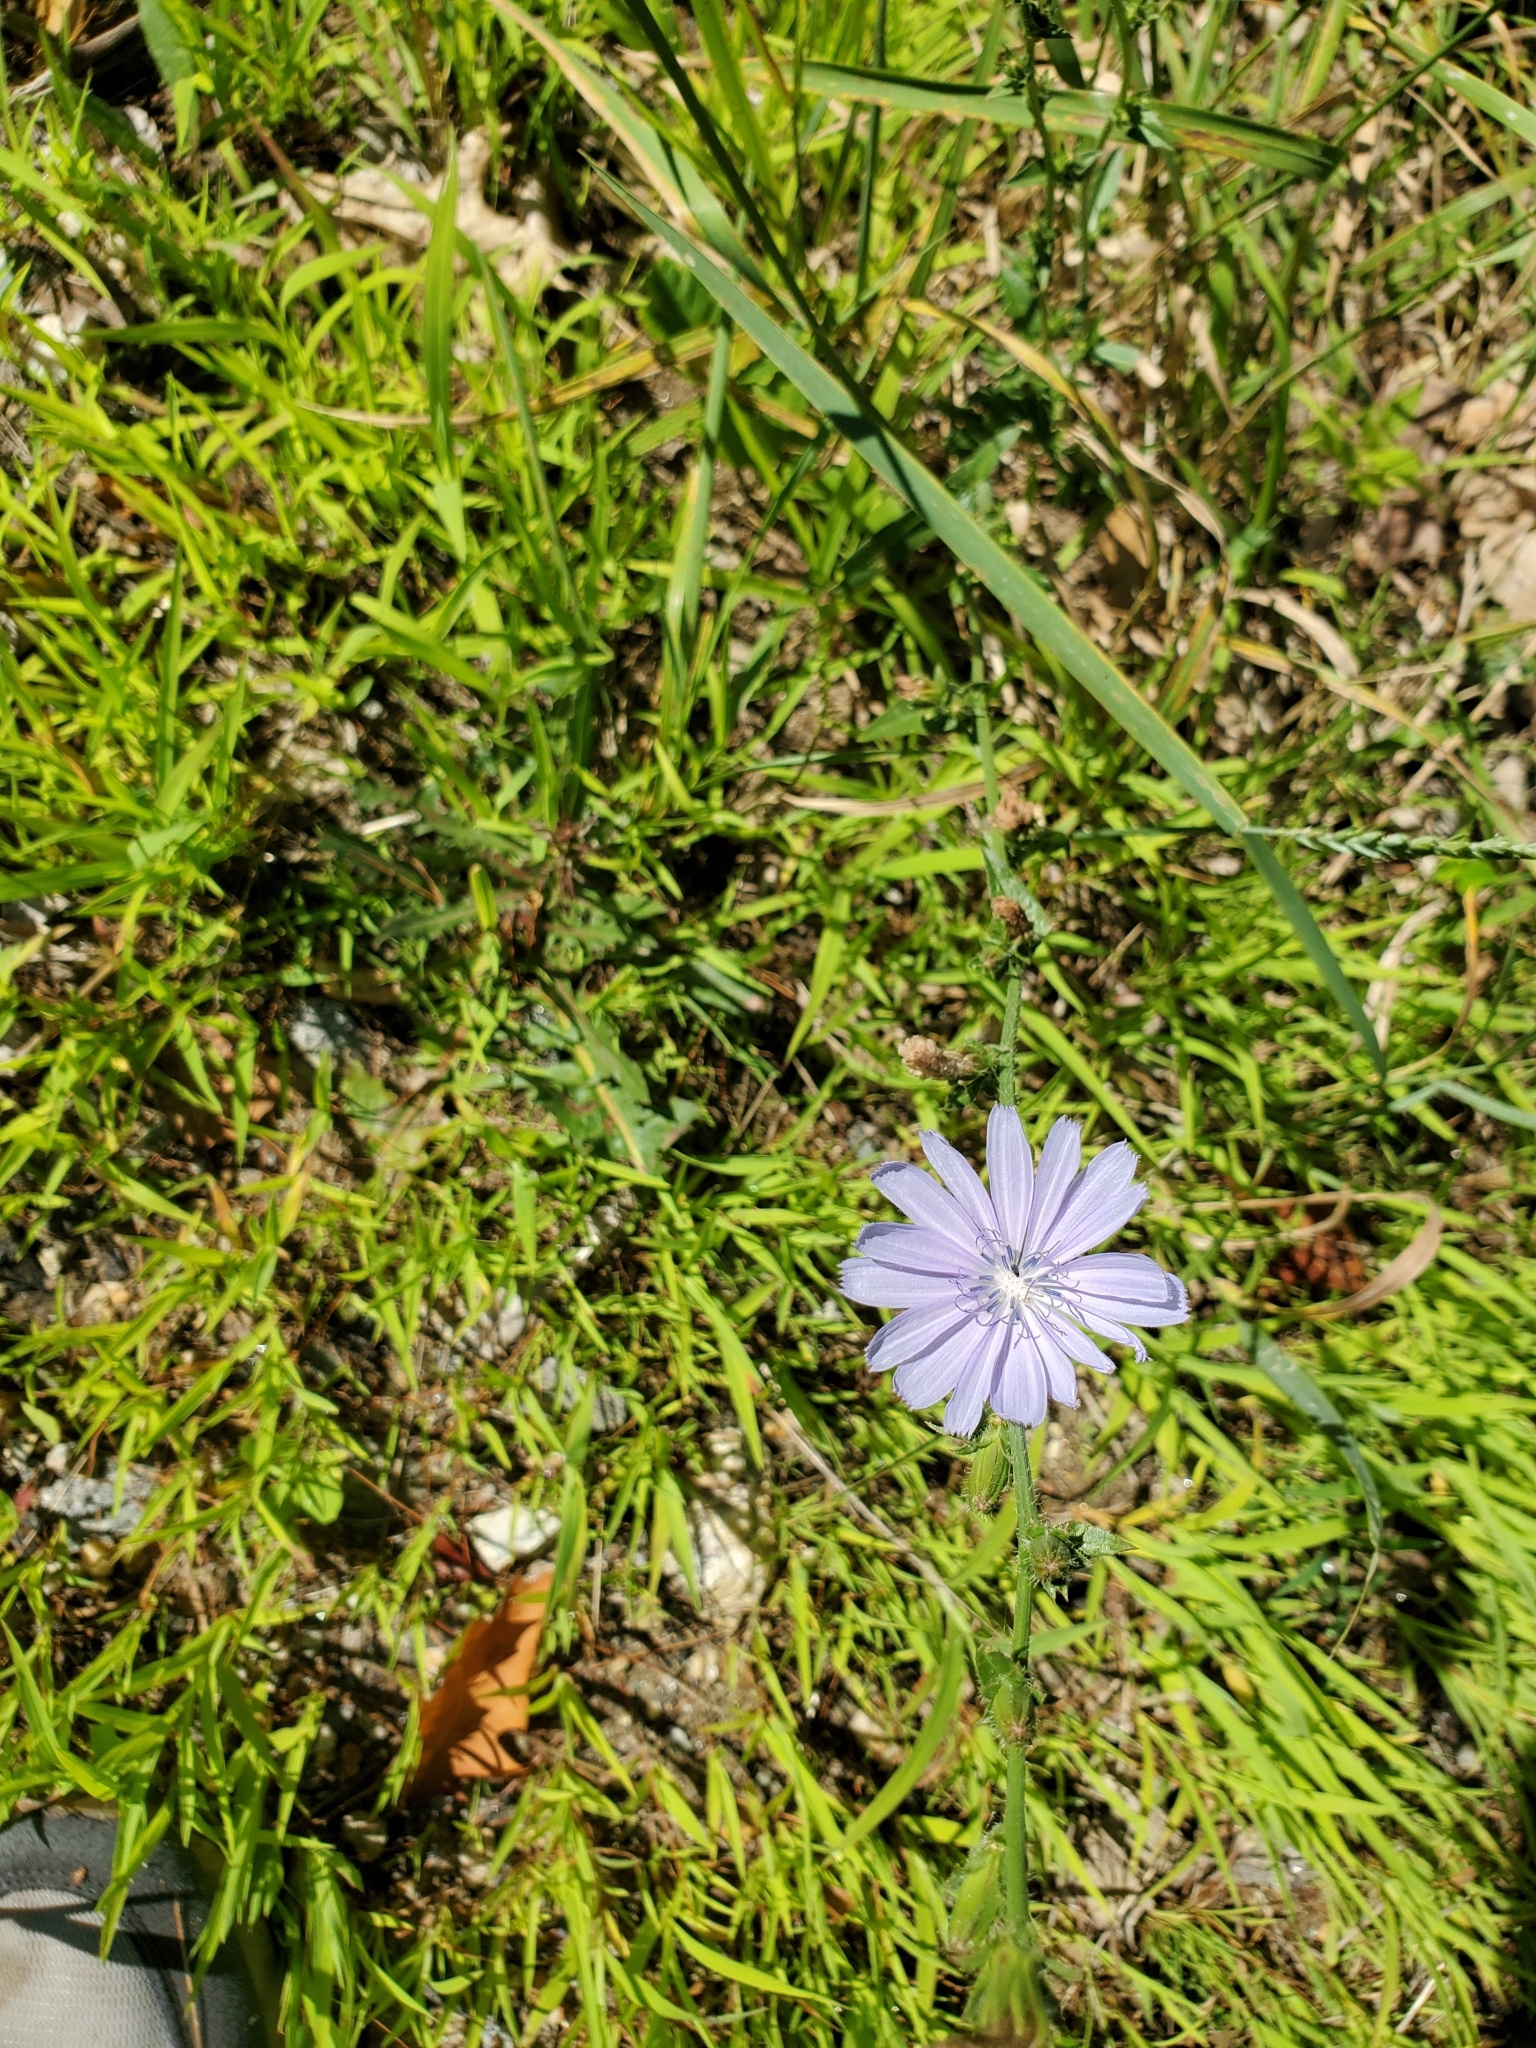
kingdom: Plantae
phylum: Tracheophyta
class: Magnoliopsida
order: Asterales
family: Asteraceae
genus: Cichorium
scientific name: Cichorium intybus
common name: Chicory
